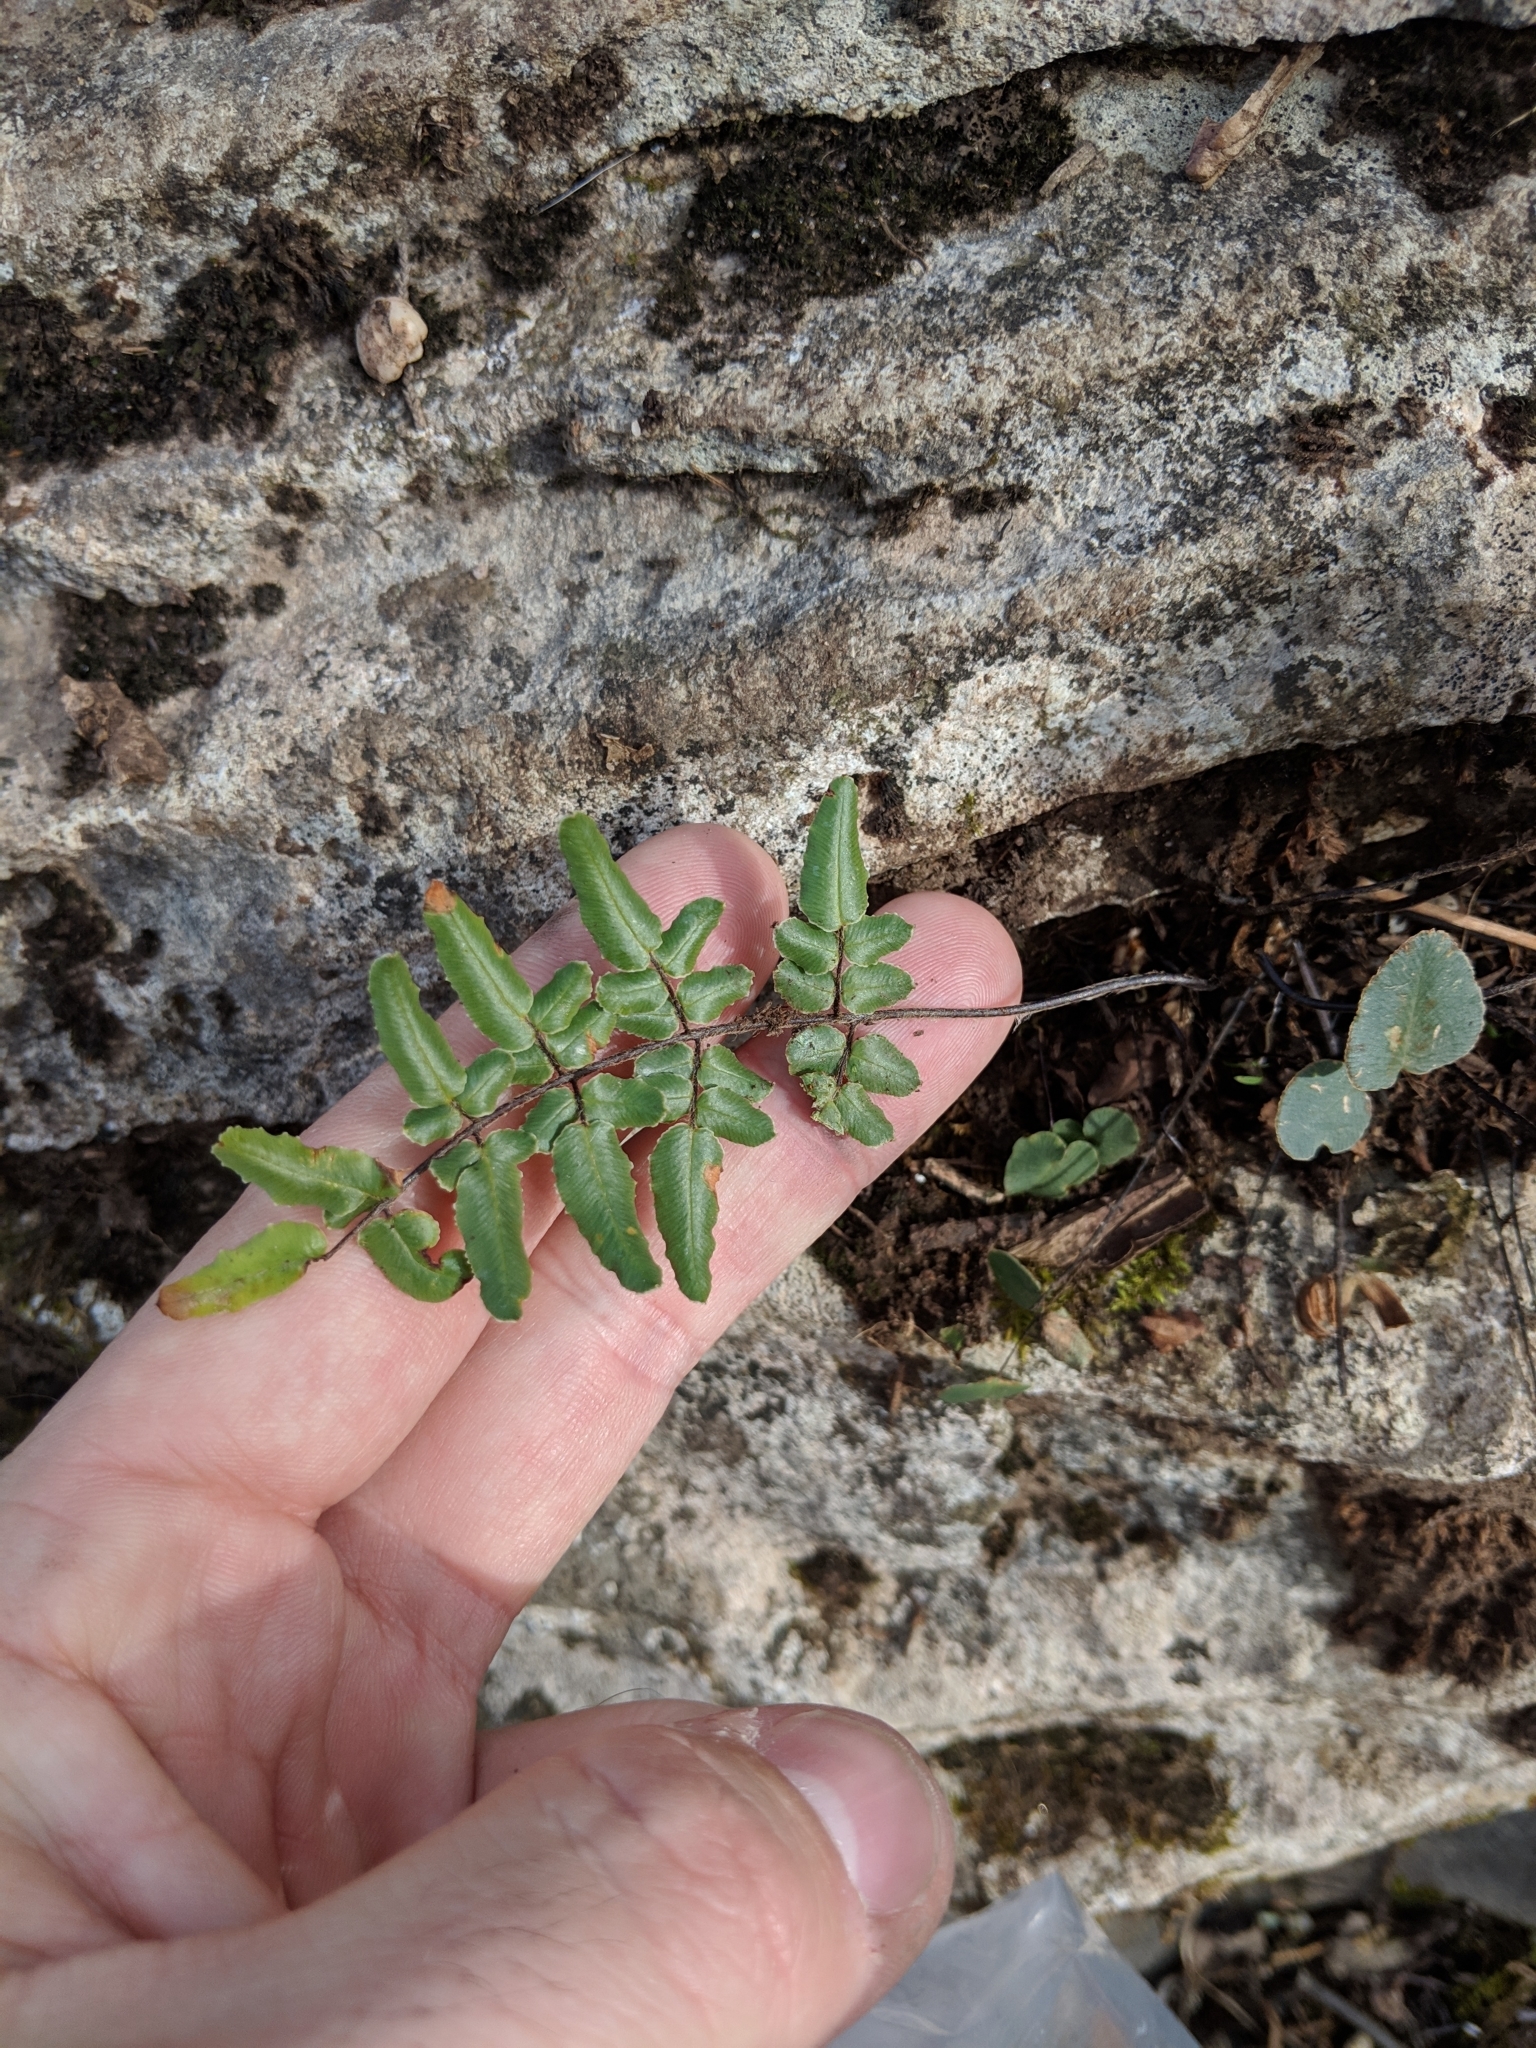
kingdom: Plantae
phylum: Tracheophyta
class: Polypodiopsida
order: Polypodiales
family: Pteridaceae
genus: Pellaea
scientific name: Pellaea atropurpurea
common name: Hairy cliffbrake
